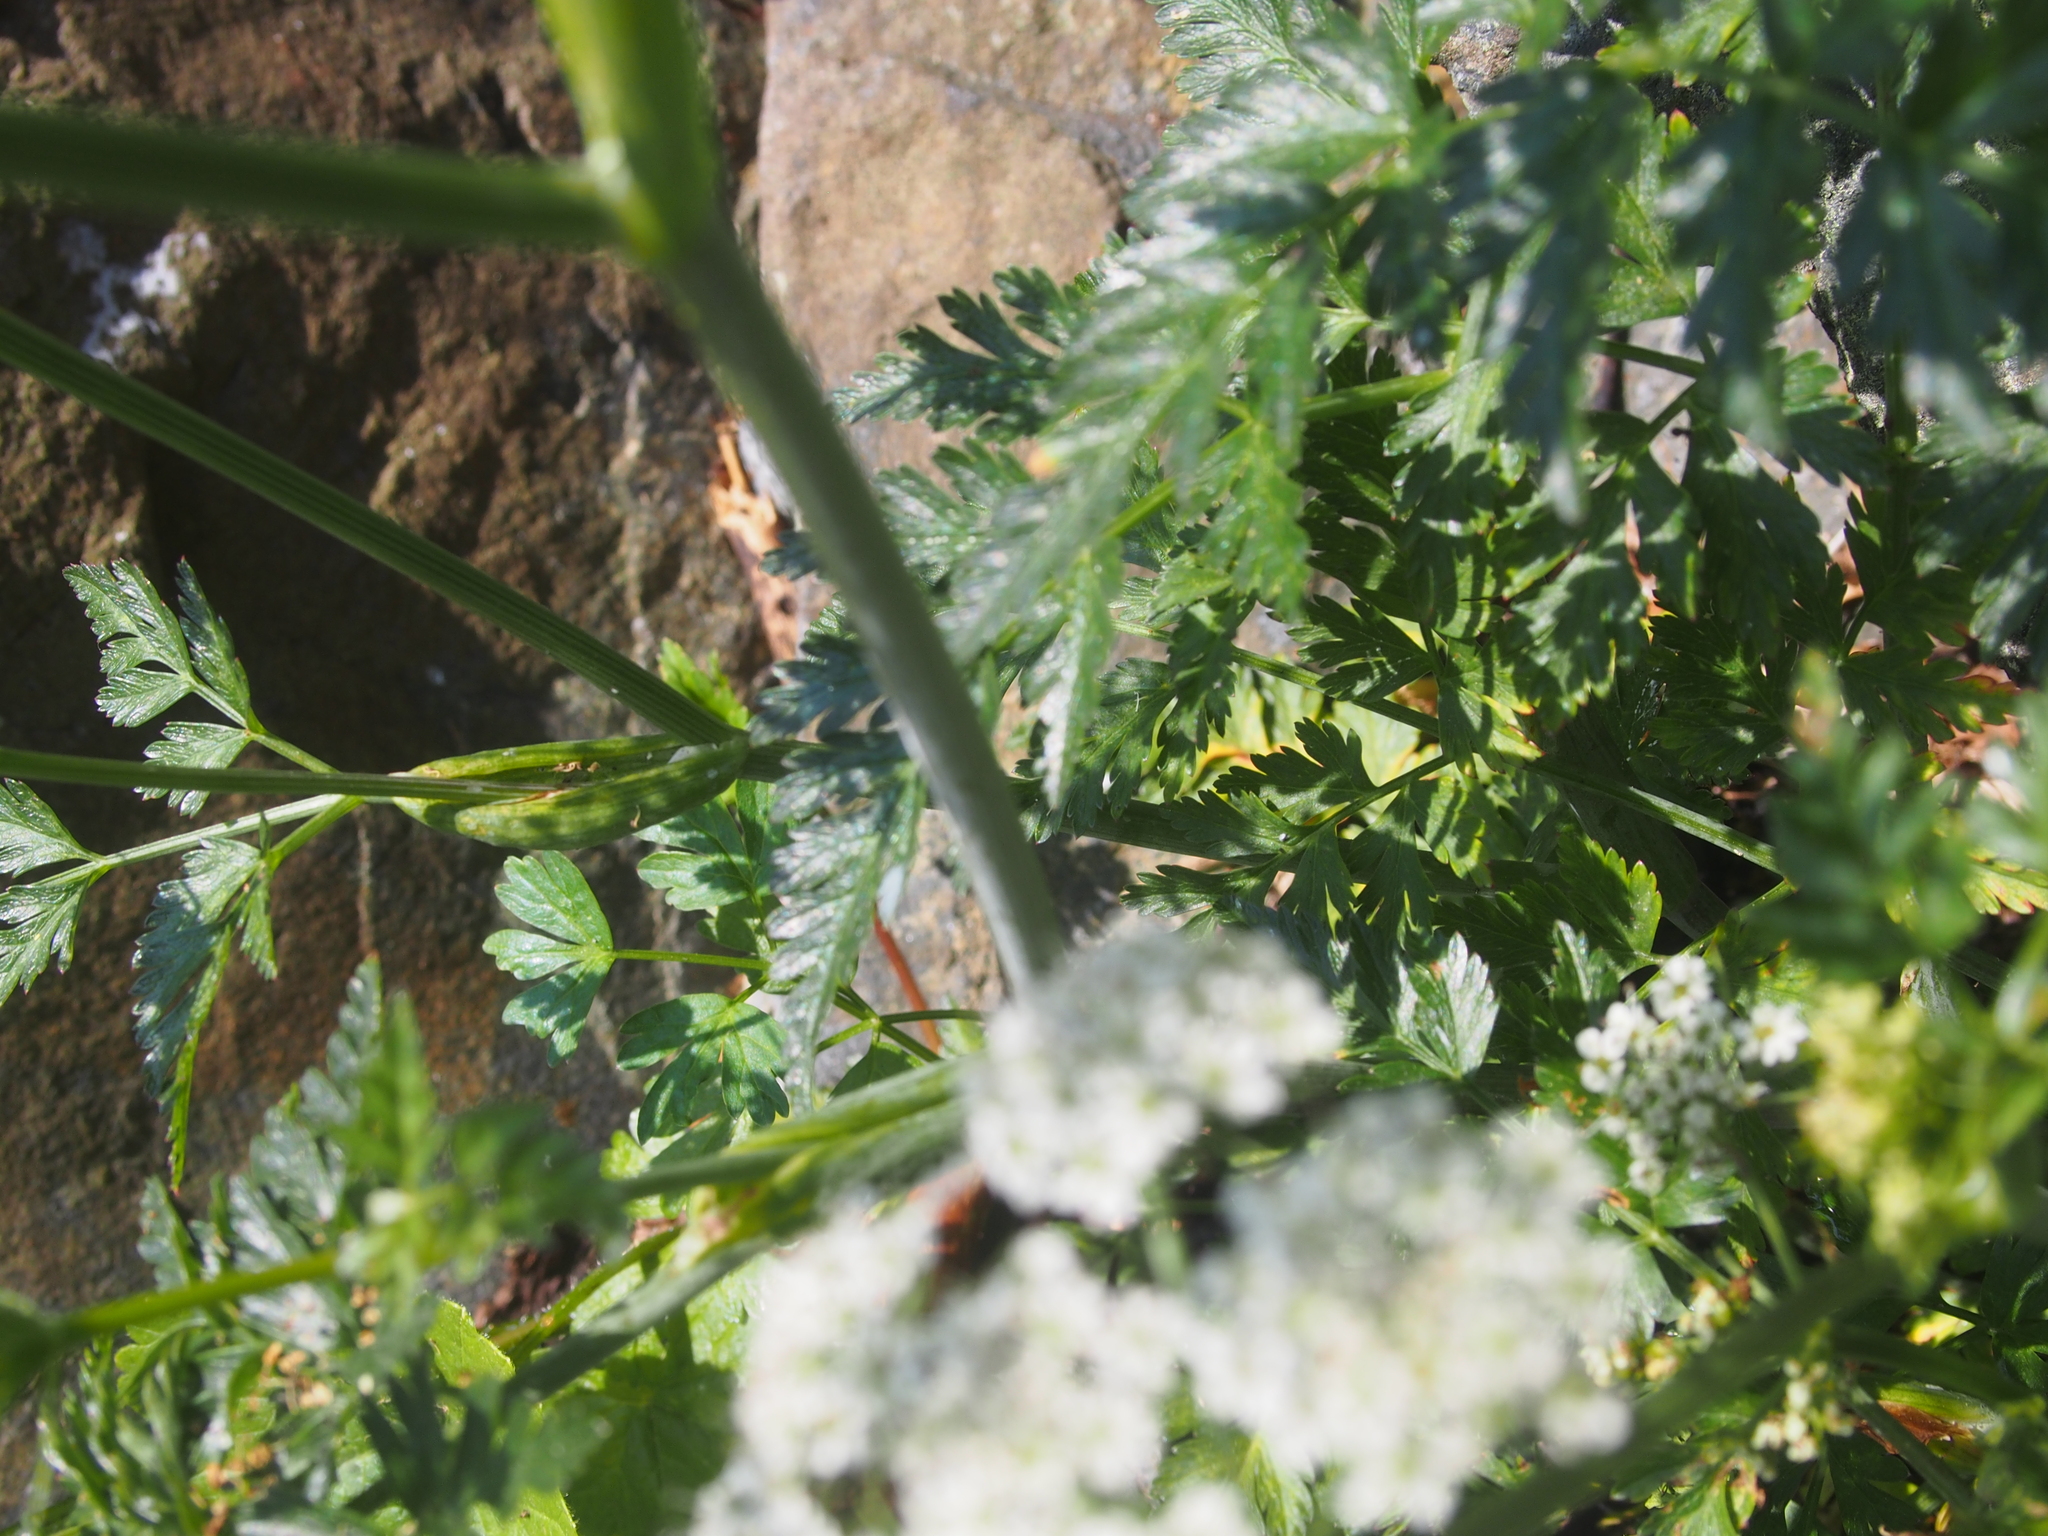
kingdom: Plantae
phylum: Tracheophyta
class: Magnoliopsida
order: Apiales
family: Apiaceae
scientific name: Apiaceae
